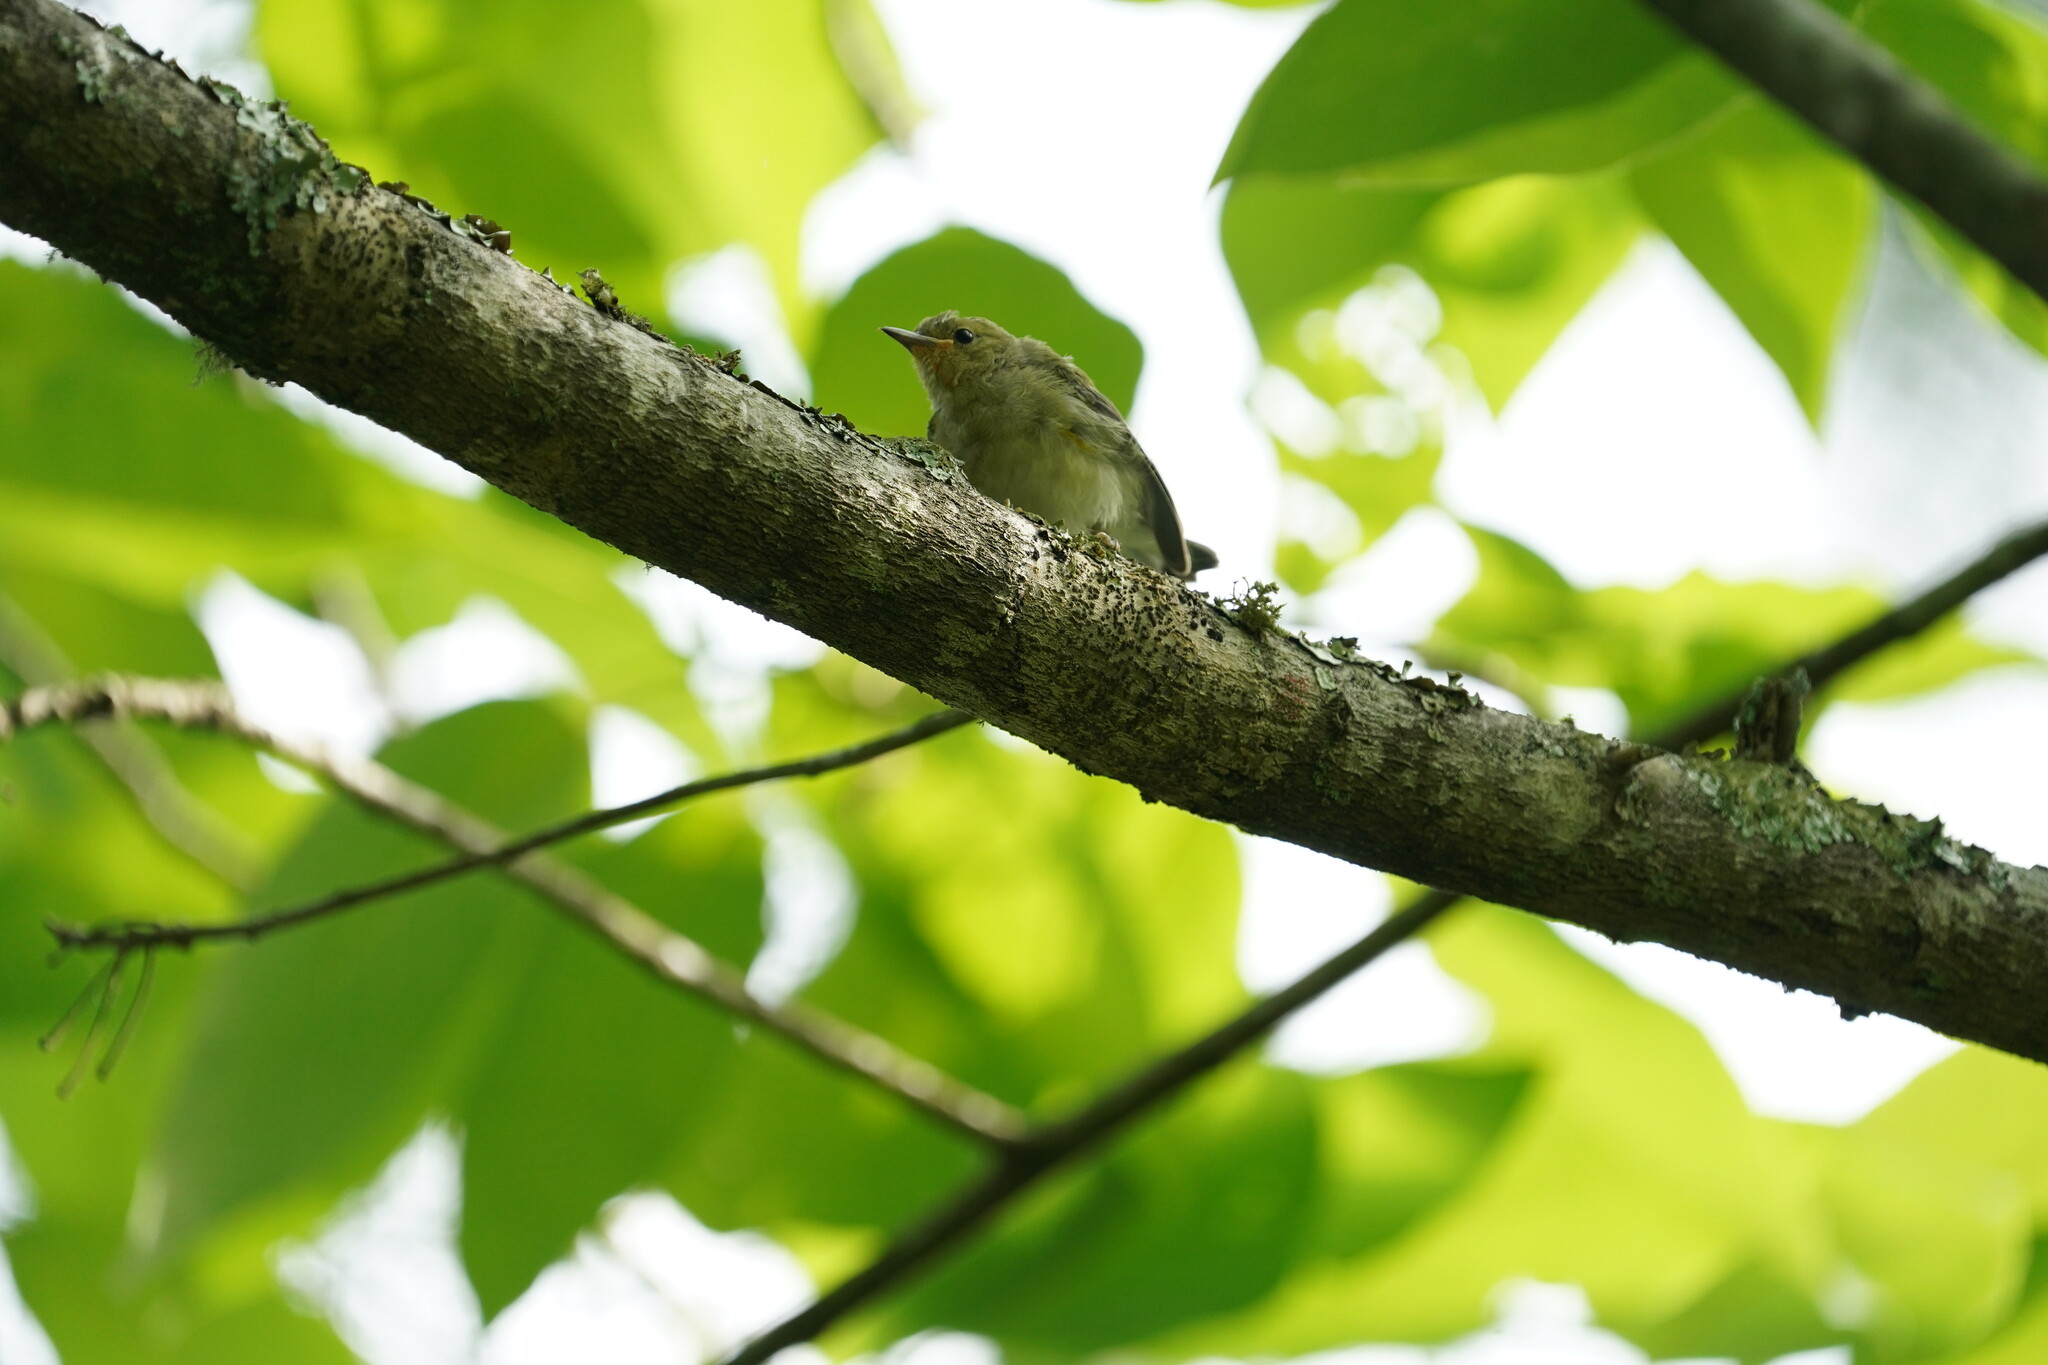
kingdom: Animalia
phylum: Chordata
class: Aves
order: Passeriformes
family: Parulidae
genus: Protonotaria
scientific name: Protonotaria citrea
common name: Prothonotary warbler
